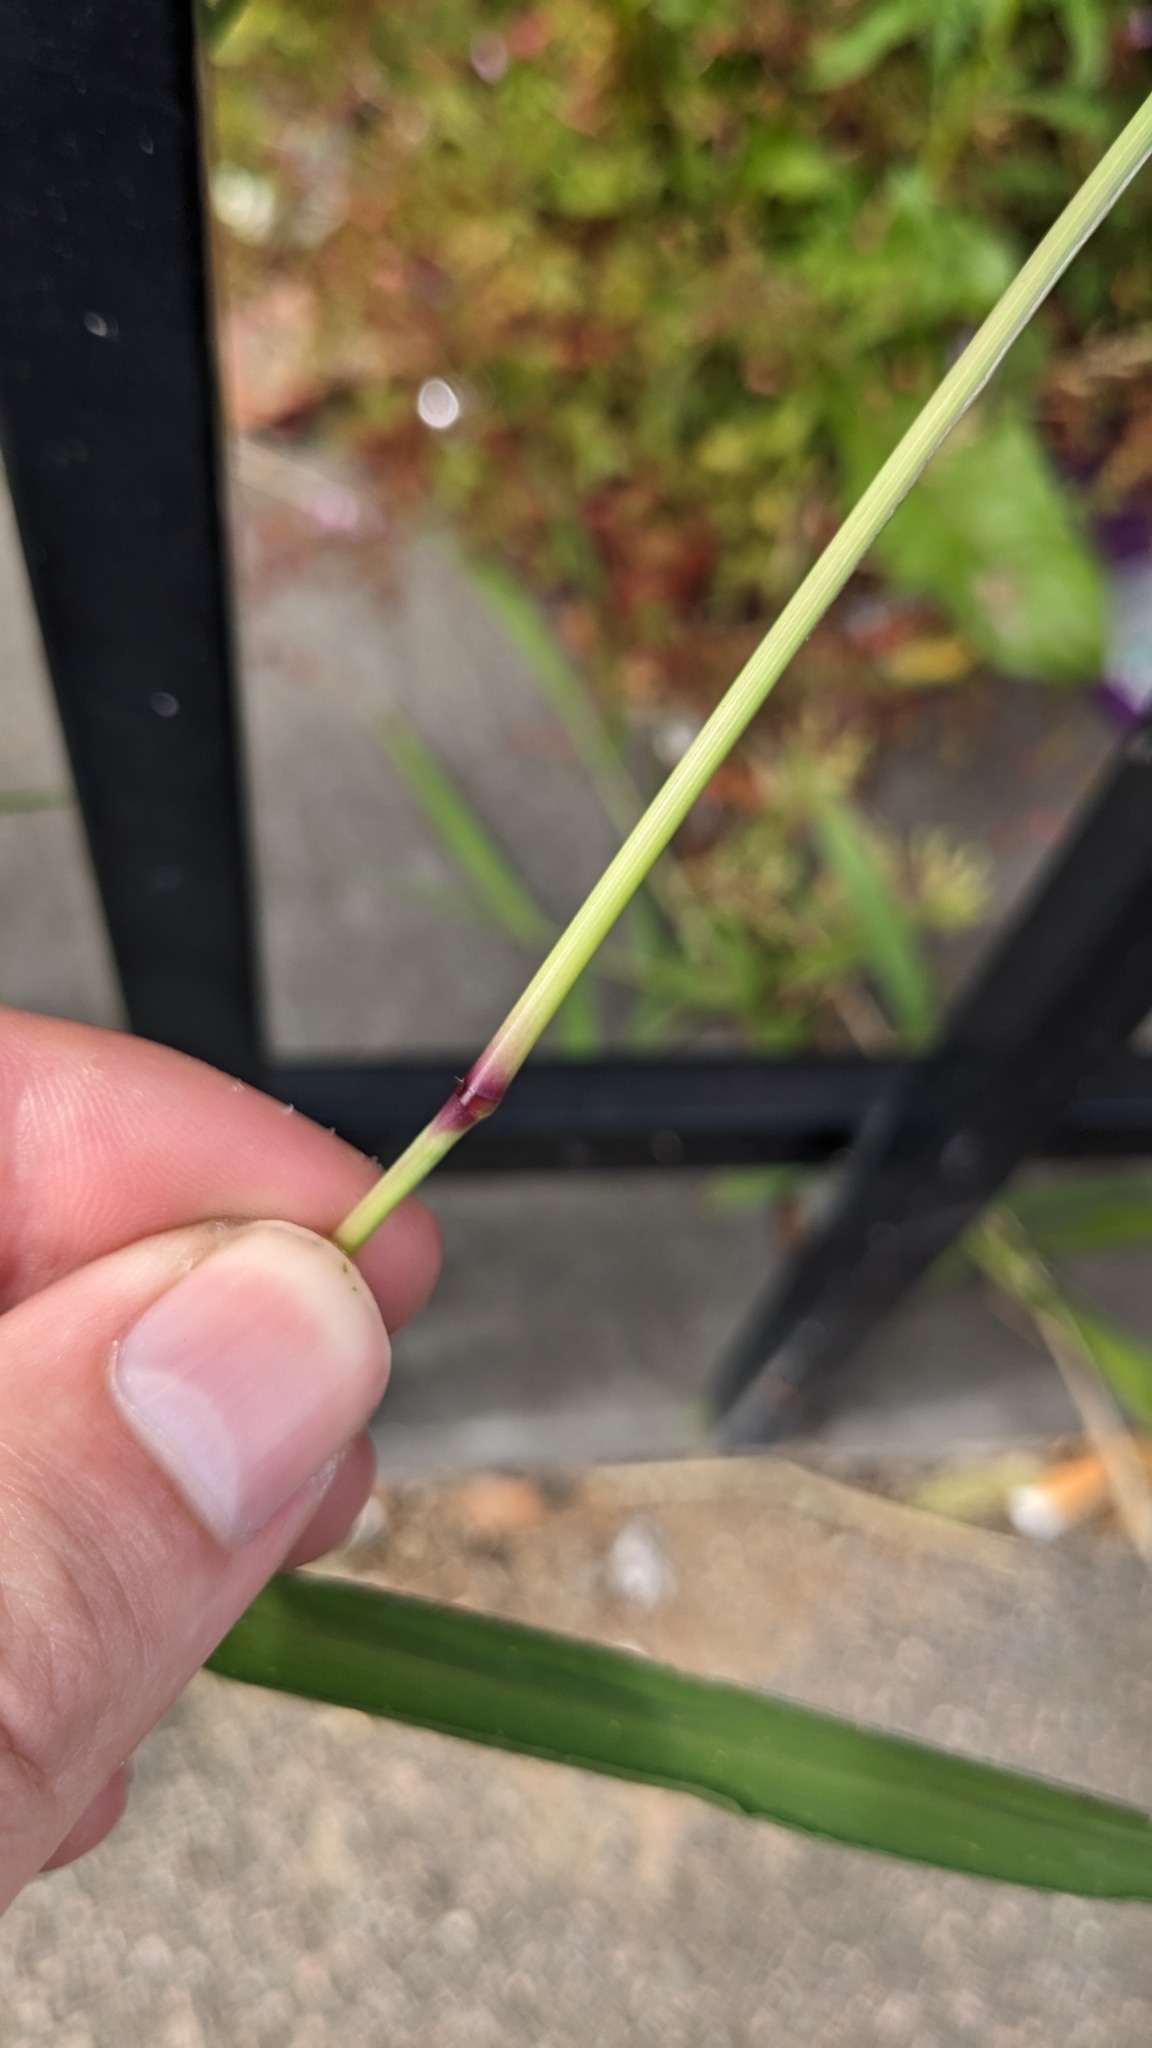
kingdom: Plantae
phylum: Tracheophyta
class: Liliopsida
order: Poales
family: Poaceae
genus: Setaria
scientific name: Setaria verticillata
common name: Hooked bristlegrass
